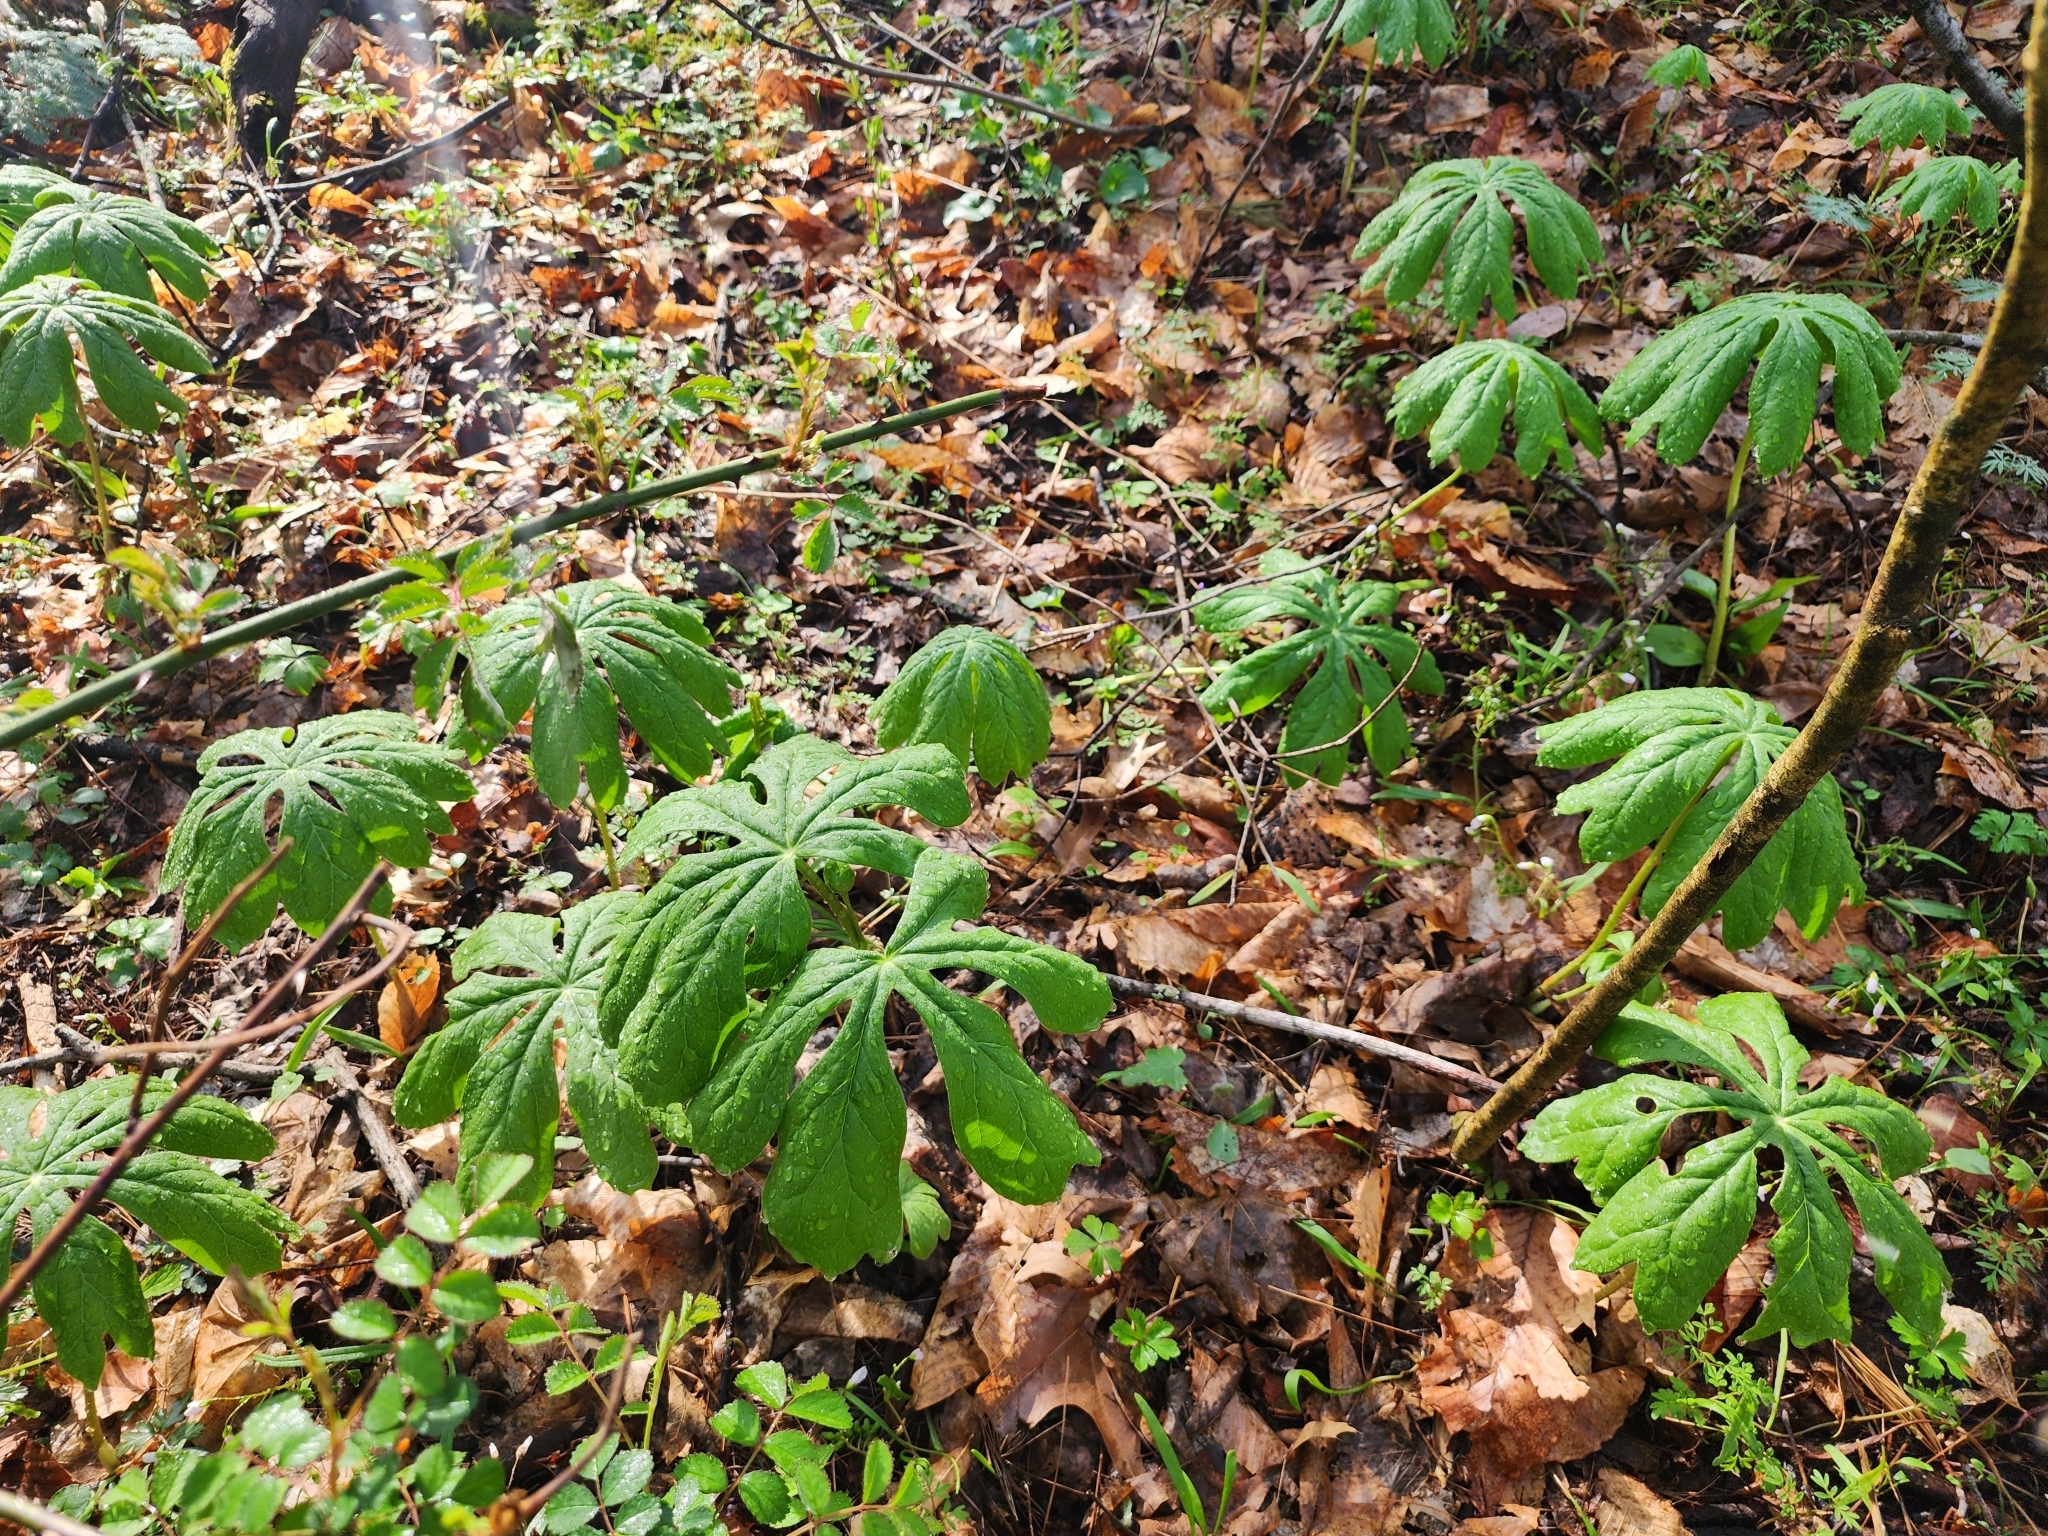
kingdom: Plantae
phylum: Tracheophyta
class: Magnoliopsida
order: Ranunculales
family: Berberidaceae
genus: Podophyllum
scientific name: Podophyllum peltatum
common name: Wild mandrake
